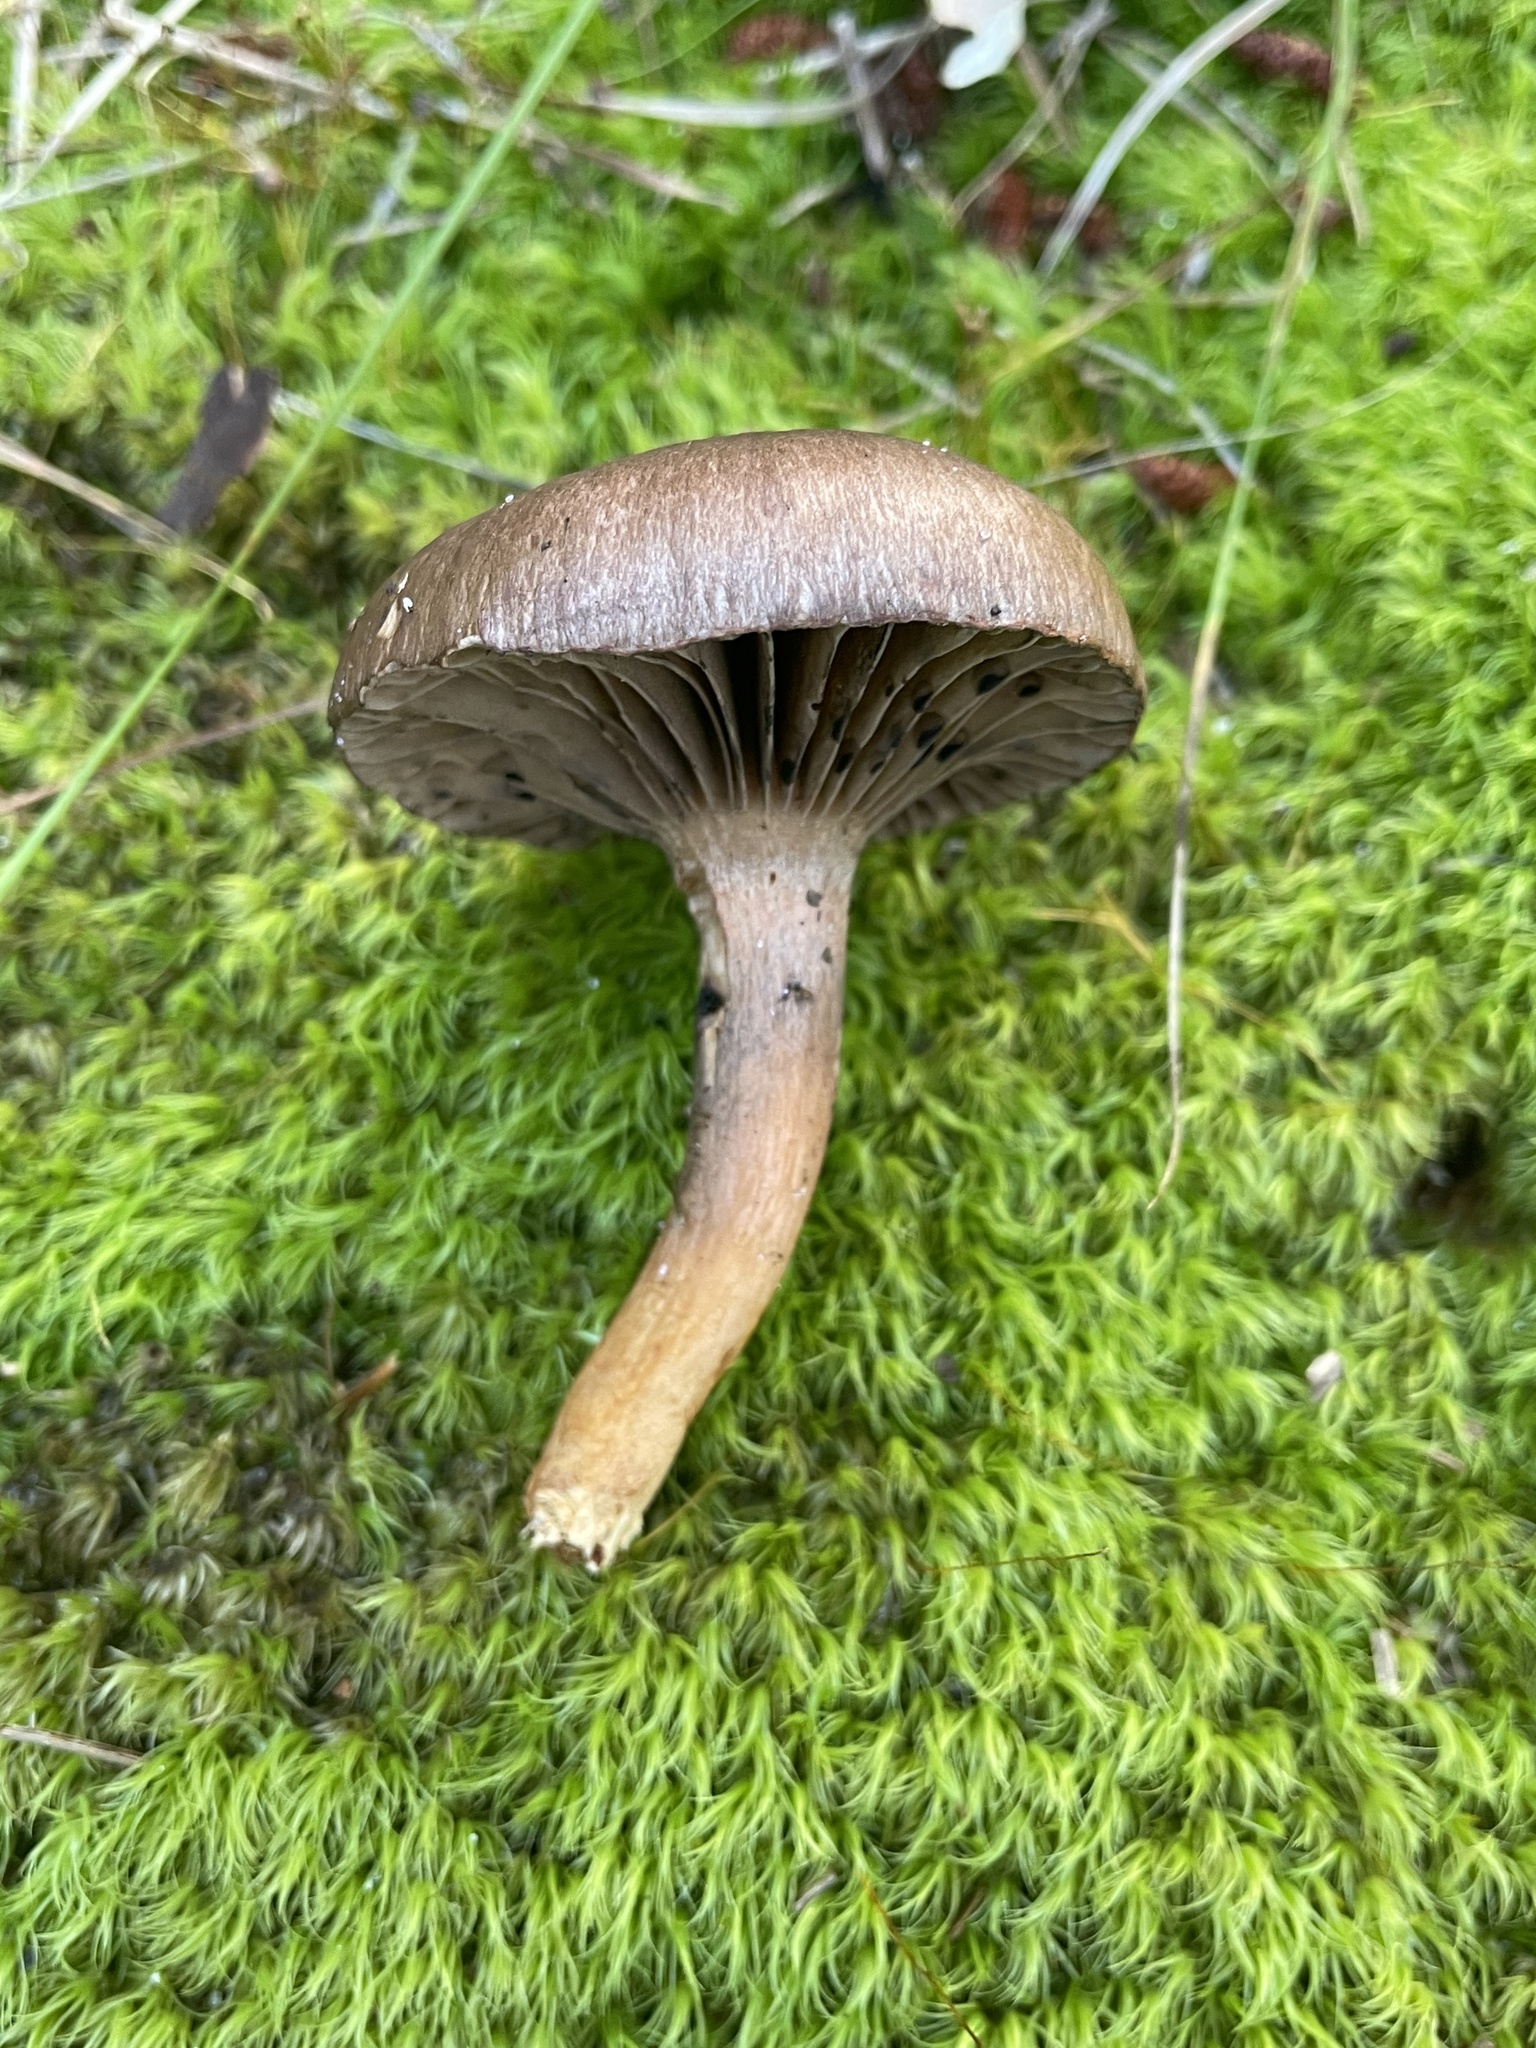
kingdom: Fungi
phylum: Basidiomycota
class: Agaricomycetes
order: Boletales
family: Gomphidiaceae
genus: Chroogomphus
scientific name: Chroogomphus vinicolor
